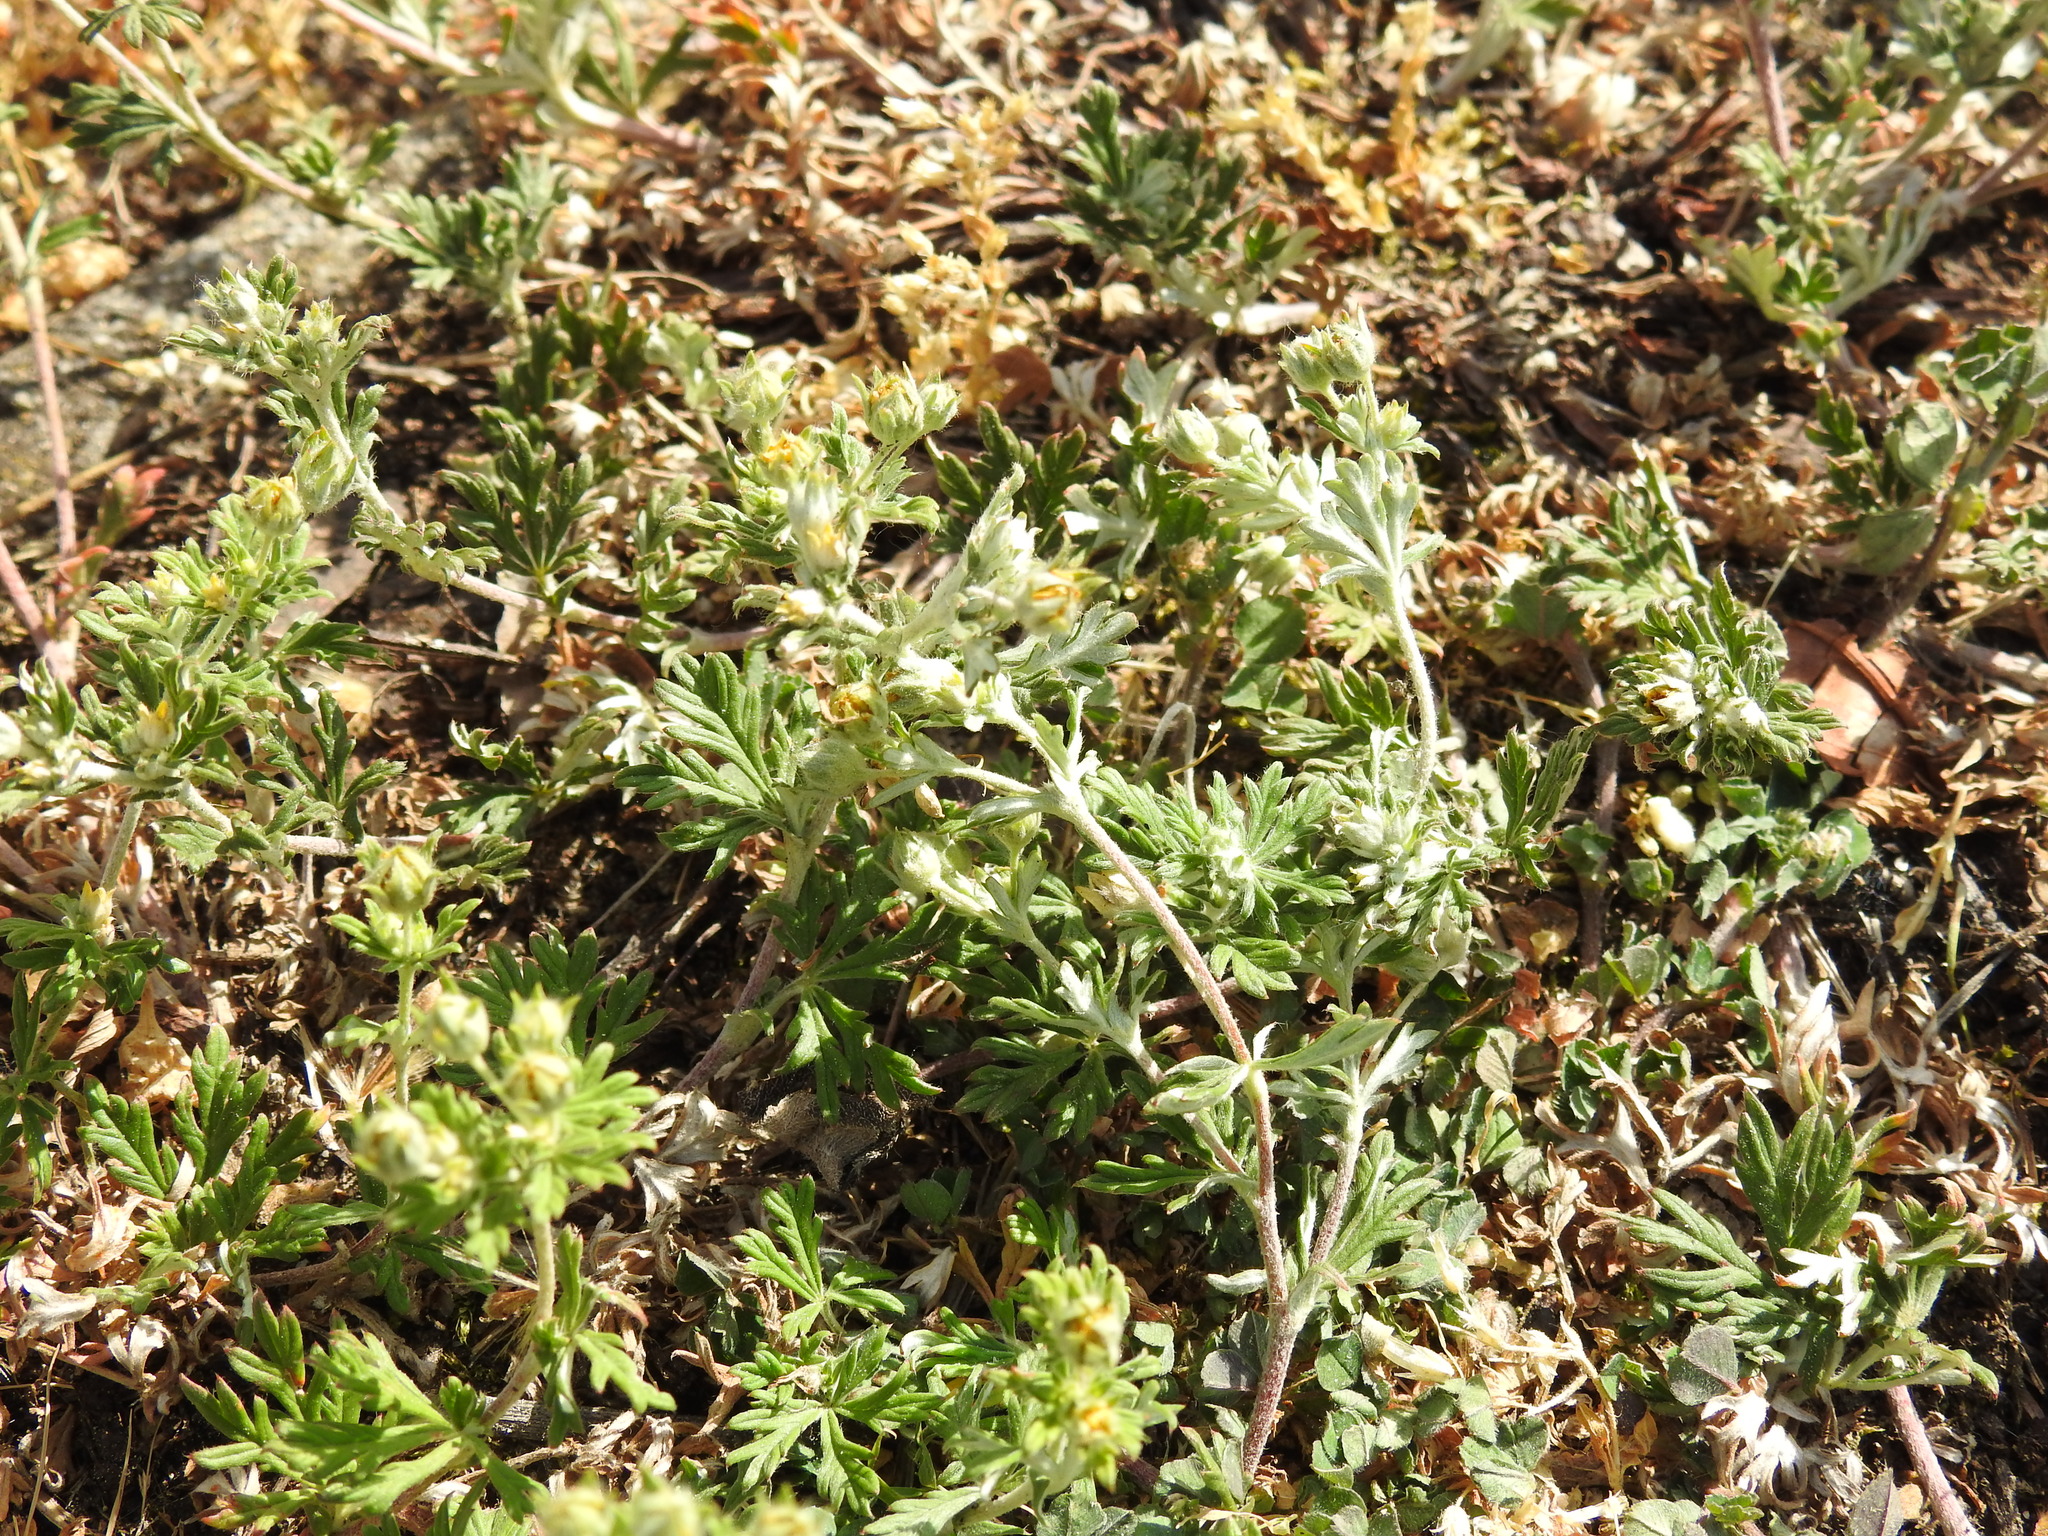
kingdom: Plantae
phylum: Tracheophyta
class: Magnoliopsida
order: Rosales
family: Rosaceae
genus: Potentilla
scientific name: Potentilla argentea
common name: Hoary cinquefoil
